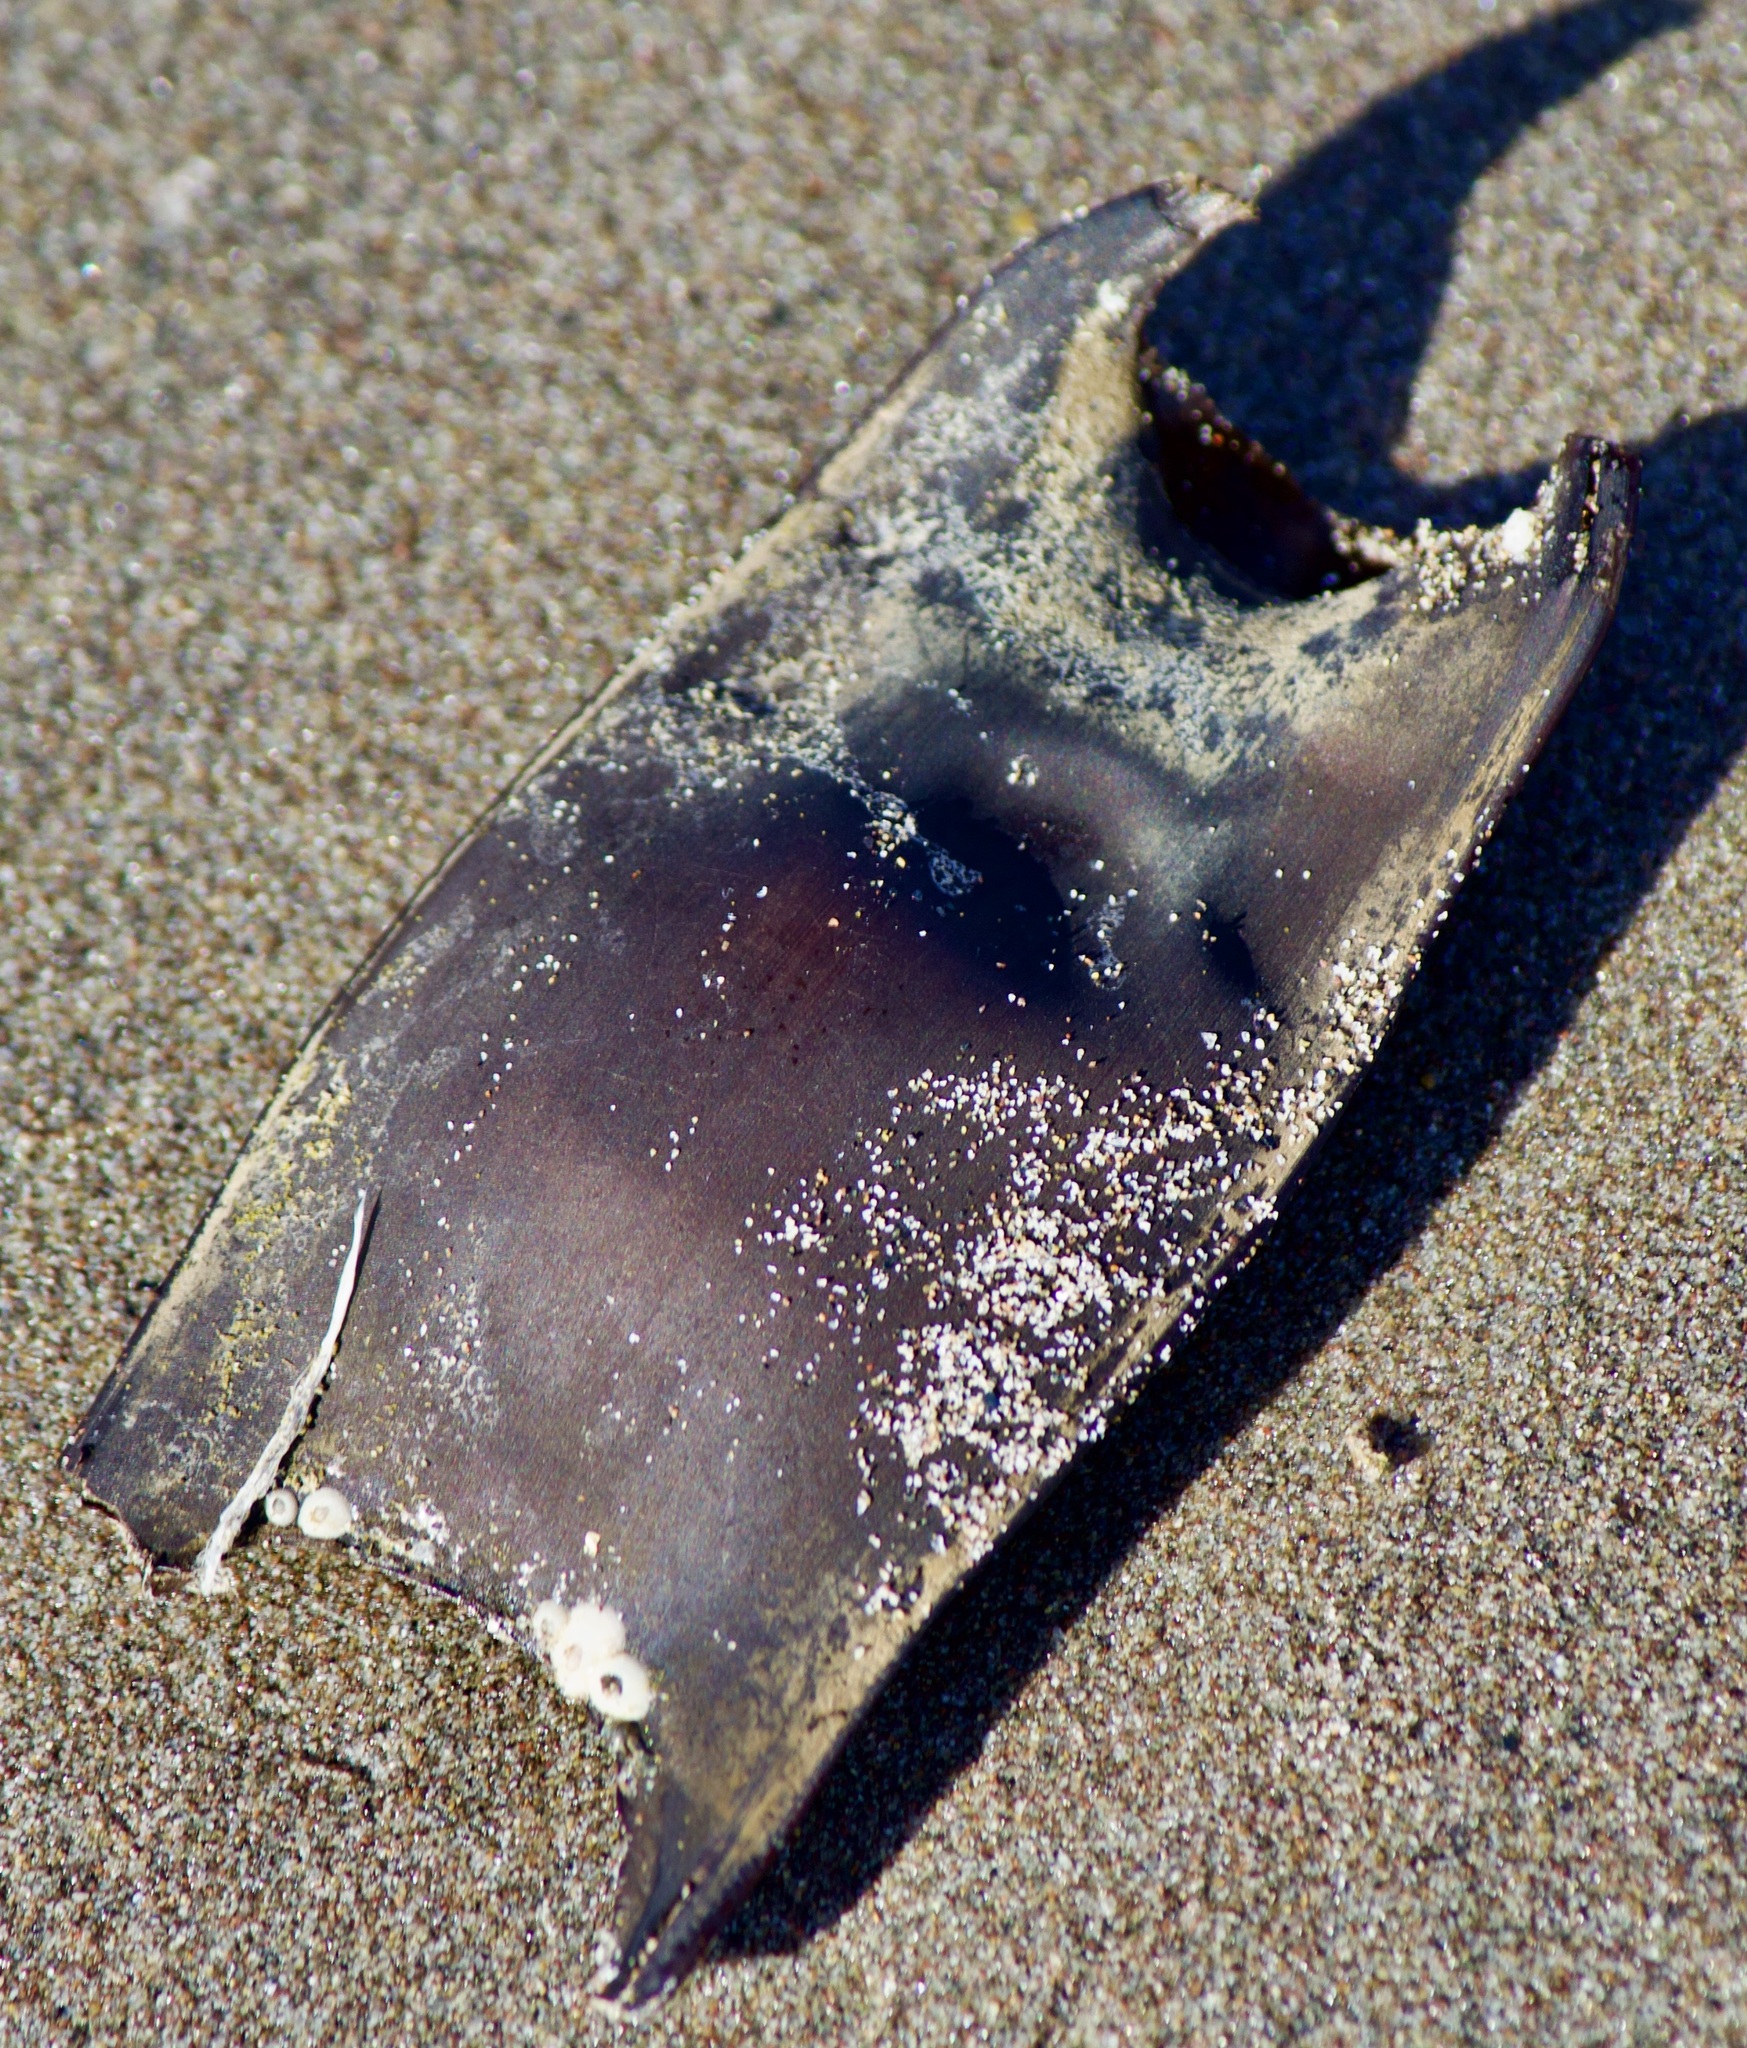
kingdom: Animalia
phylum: Chordata
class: Elasmobranchii
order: Rajiformes
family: Arhynchobatidae
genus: Sympterygia
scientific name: Sympterygia brevicaudata
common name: Shorttail fanskate
